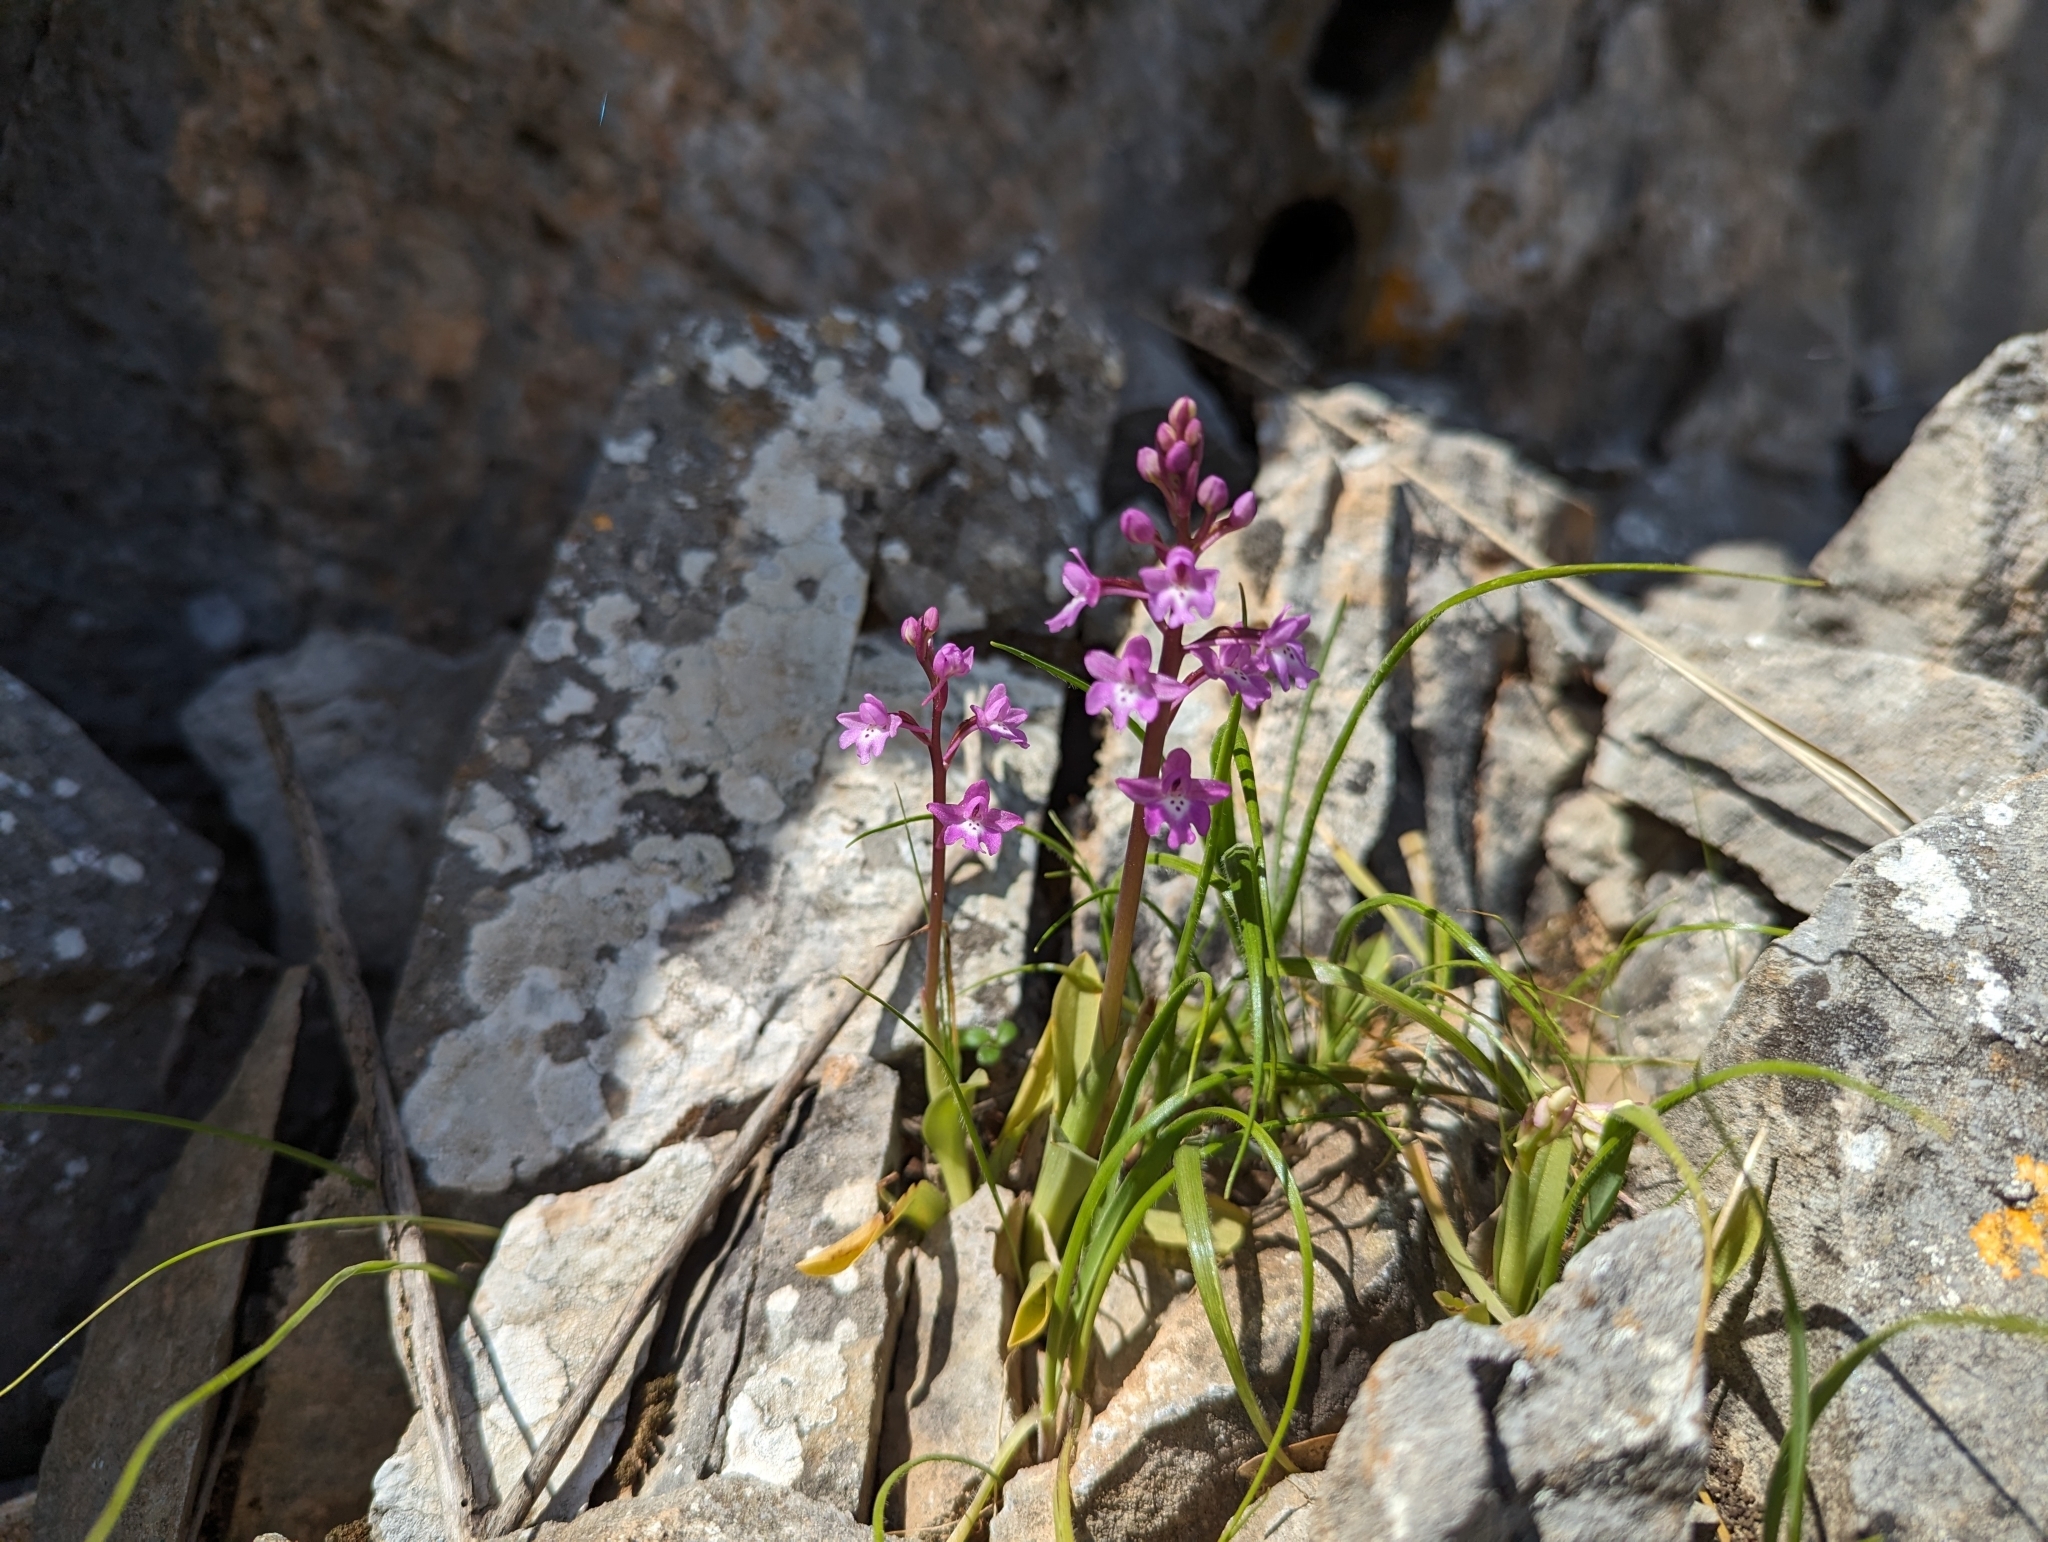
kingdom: Plantae
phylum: Tracheophyta
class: Liliopsida
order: Asparagales
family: Orchidaceae
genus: Orchis
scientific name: Orchis quadripunctata
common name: Four-spotted orchid
